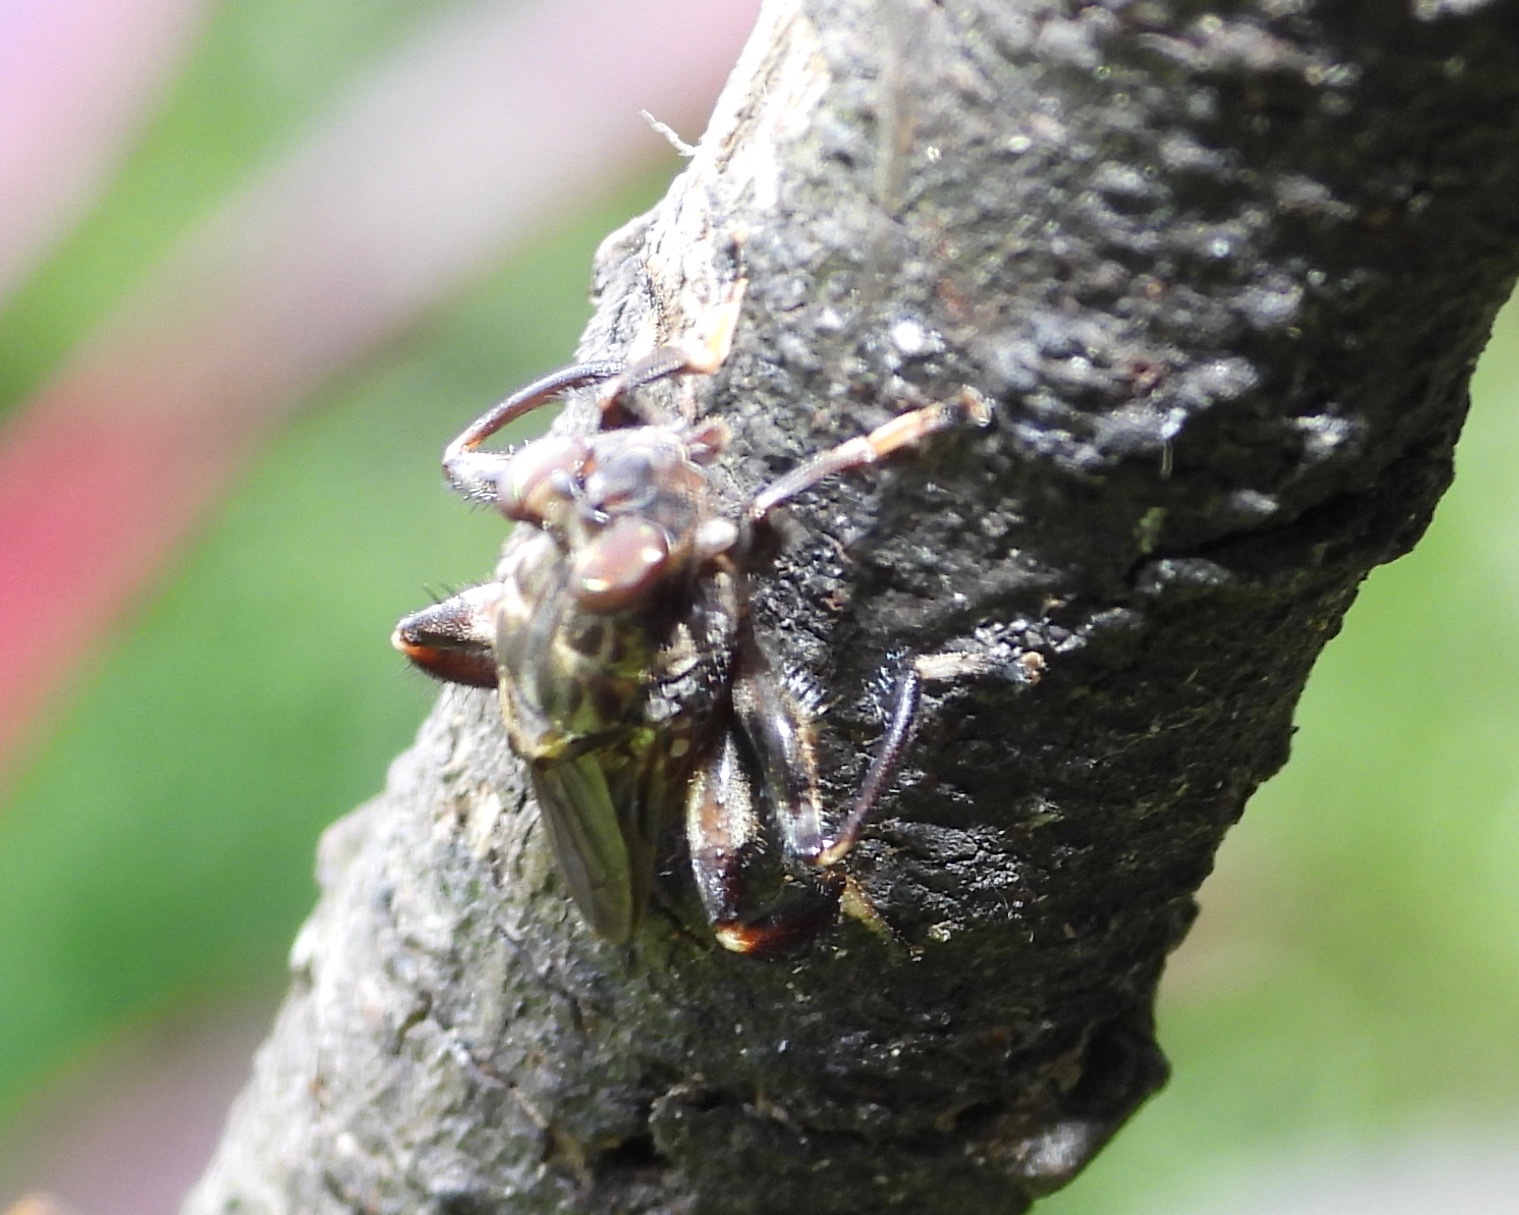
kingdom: Animalia
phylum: Arthropoda
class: Insecta
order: Diptera
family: Ropalomeridae
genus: Ropalomera
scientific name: Ropalomera
